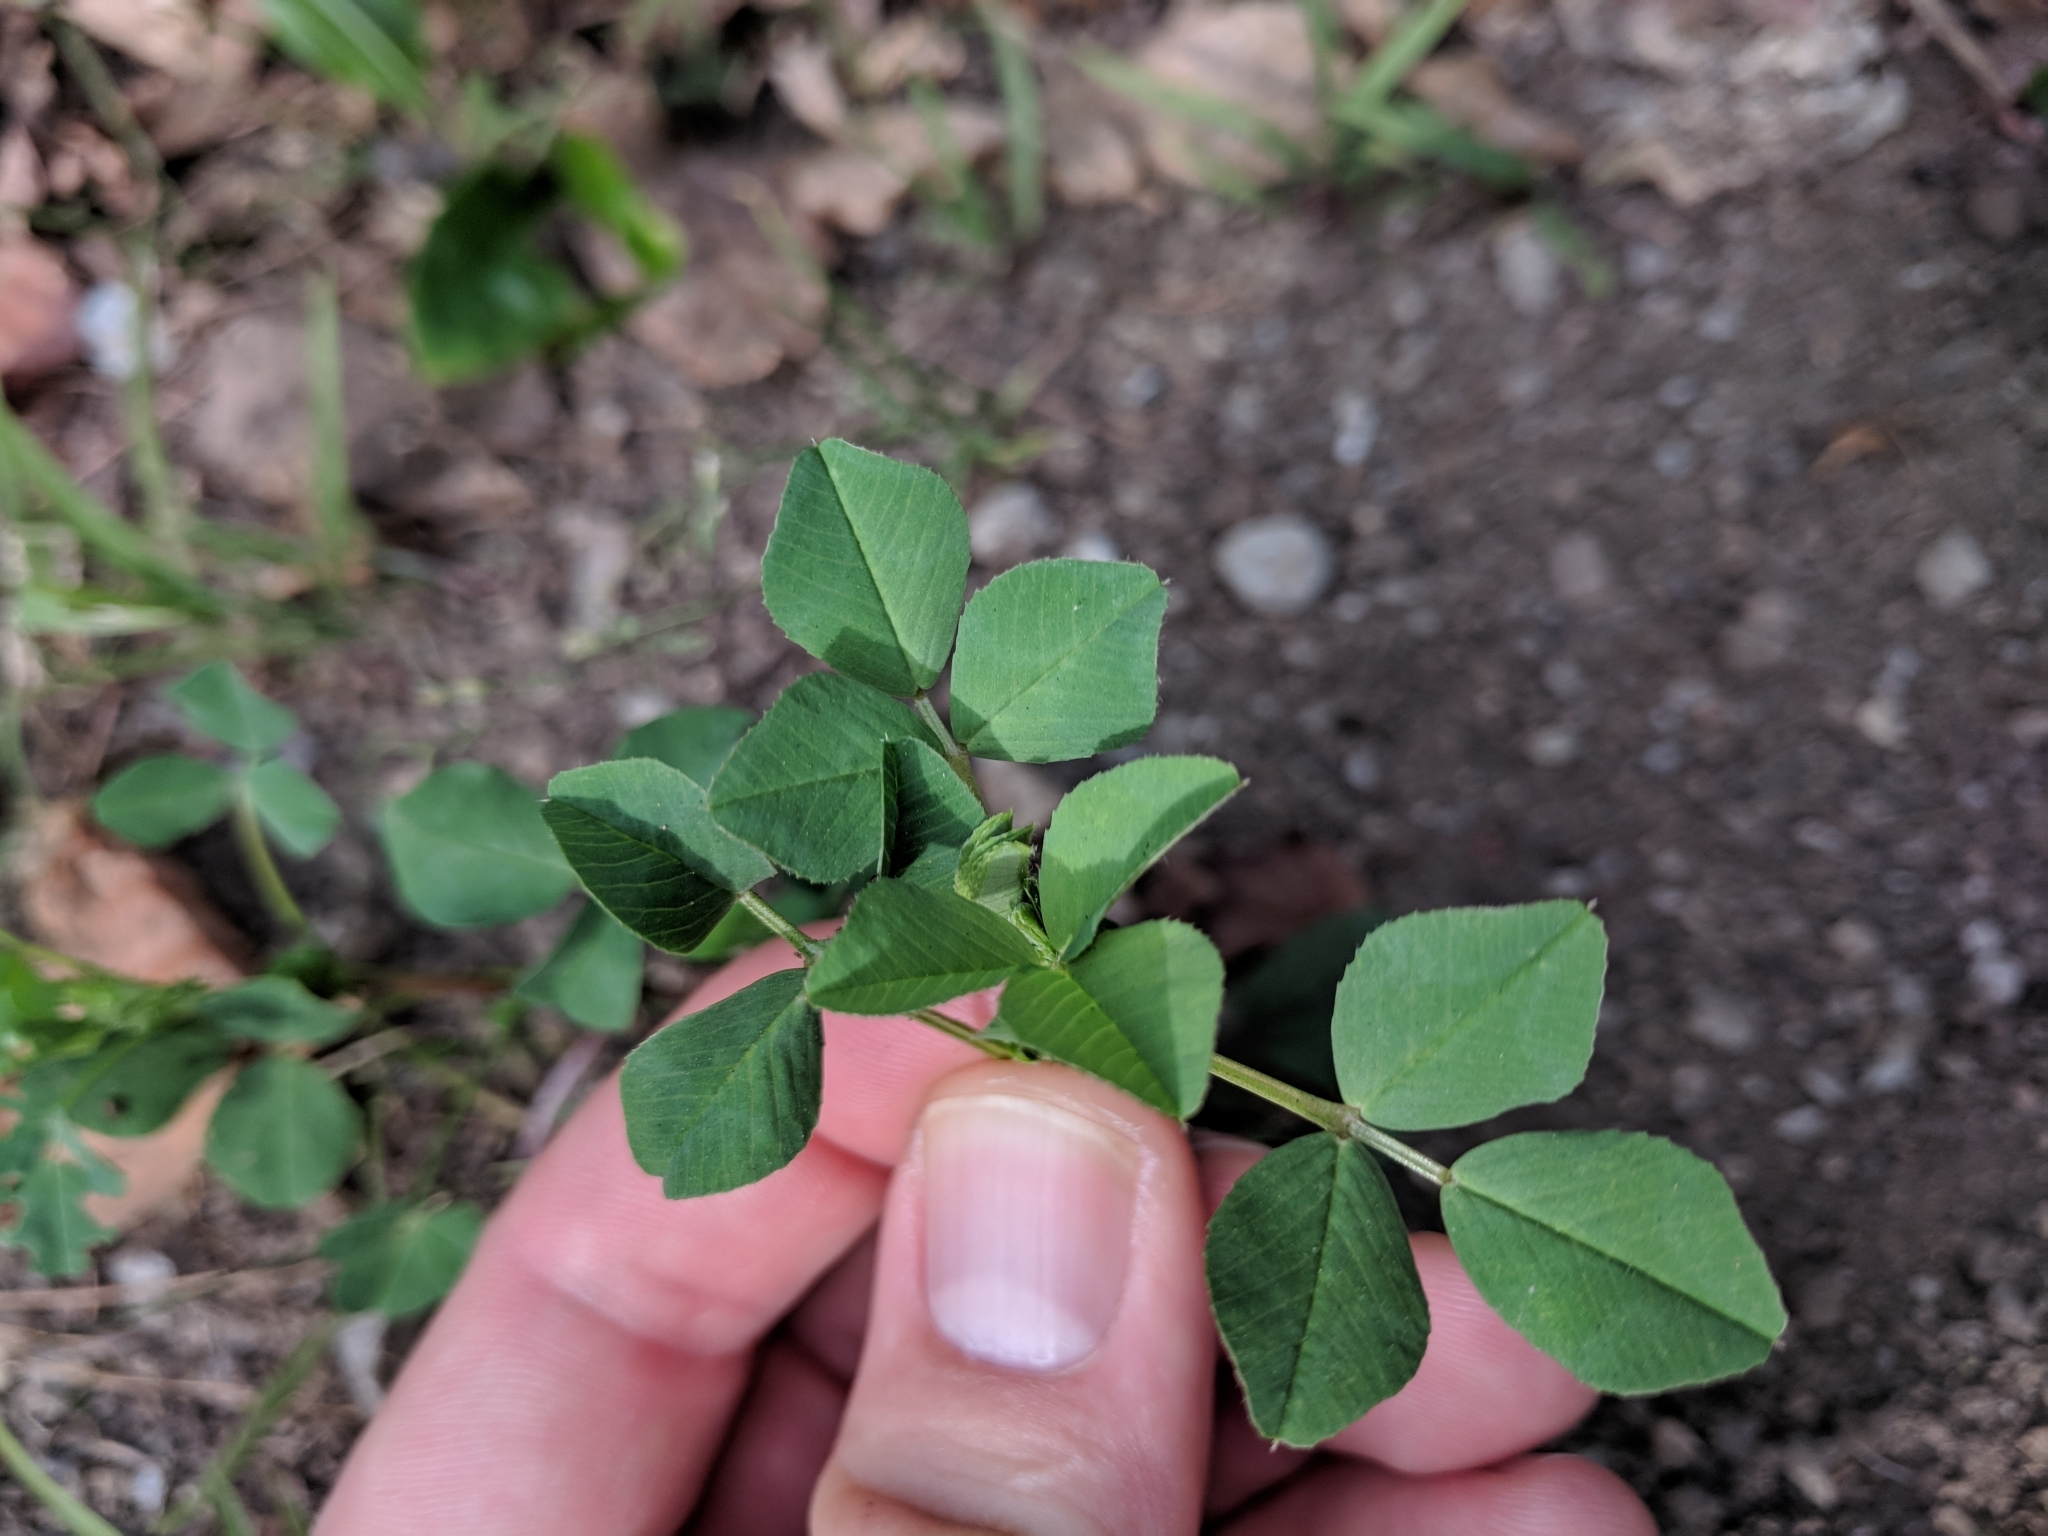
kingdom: Plantae
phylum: Tracheophyta
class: Magnoliopsida
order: Fabales
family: Fabaceae
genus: Medicago
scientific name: Medicago polymorpha
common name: Burclover
